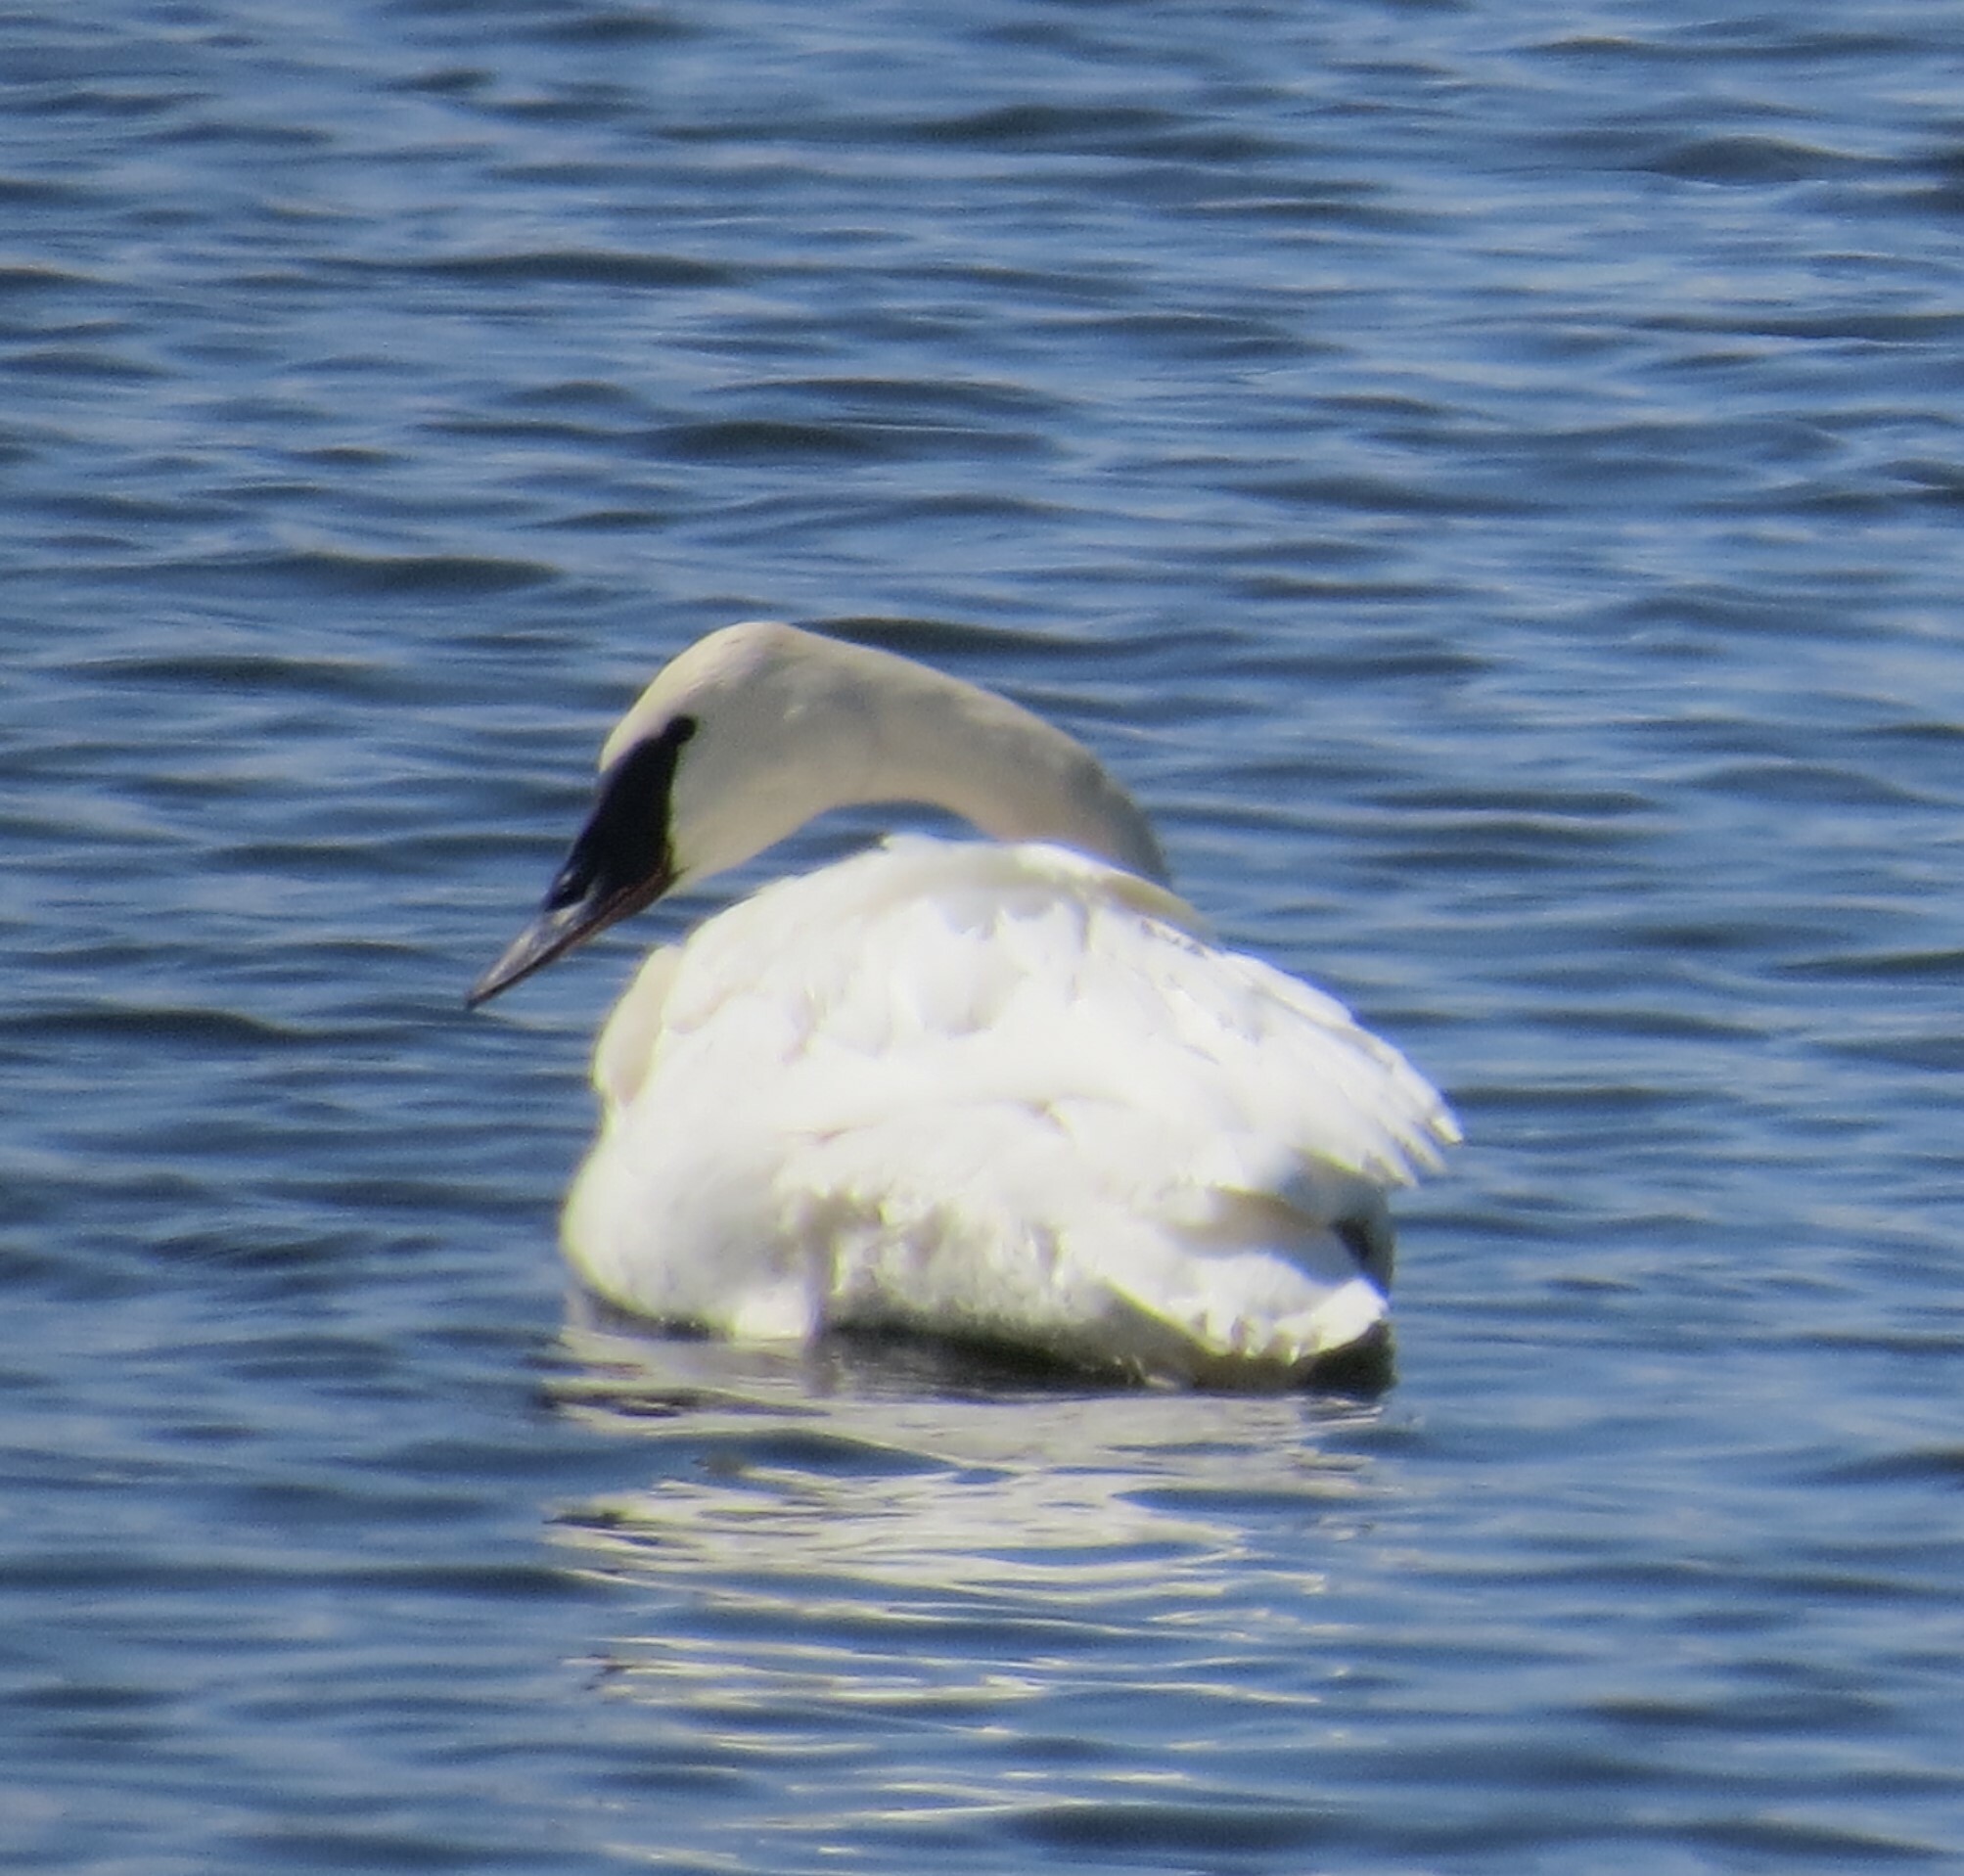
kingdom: Animalia
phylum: Chordata
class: Aves
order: Anseriformes
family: Anatidae
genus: Cygnus
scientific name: Cygnus buccinator
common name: Trumpeter swan
